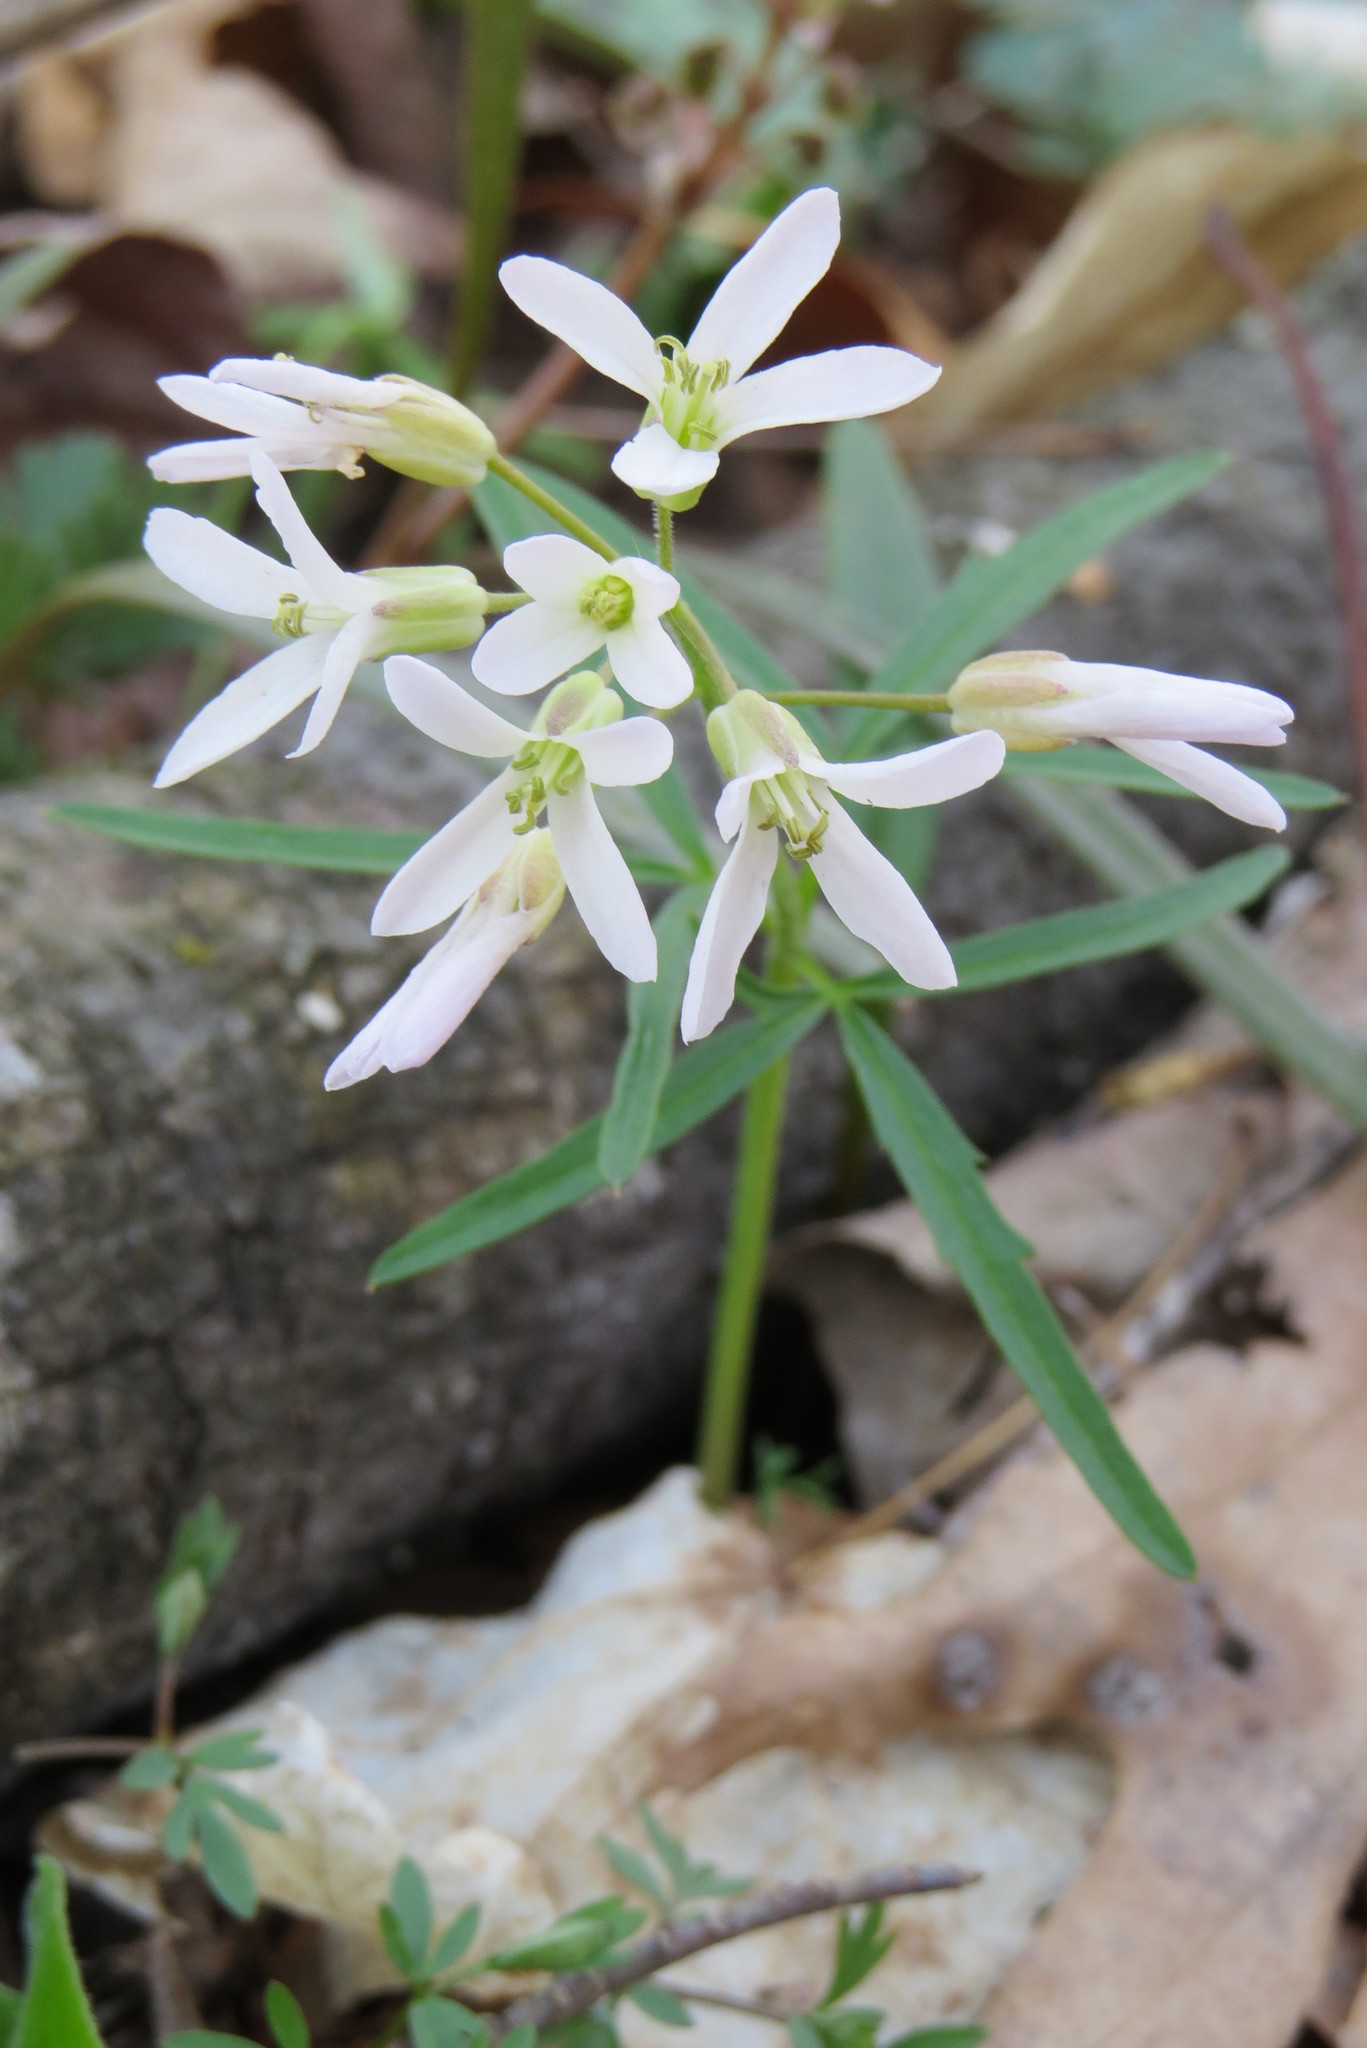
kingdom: Plantae
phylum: Tracheophyta
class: Magnoliopsida
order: Brassicales
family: Brassicaceae
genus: Cardamine
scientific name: Cardamine concatenata
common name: Cut-leaf toothcup
